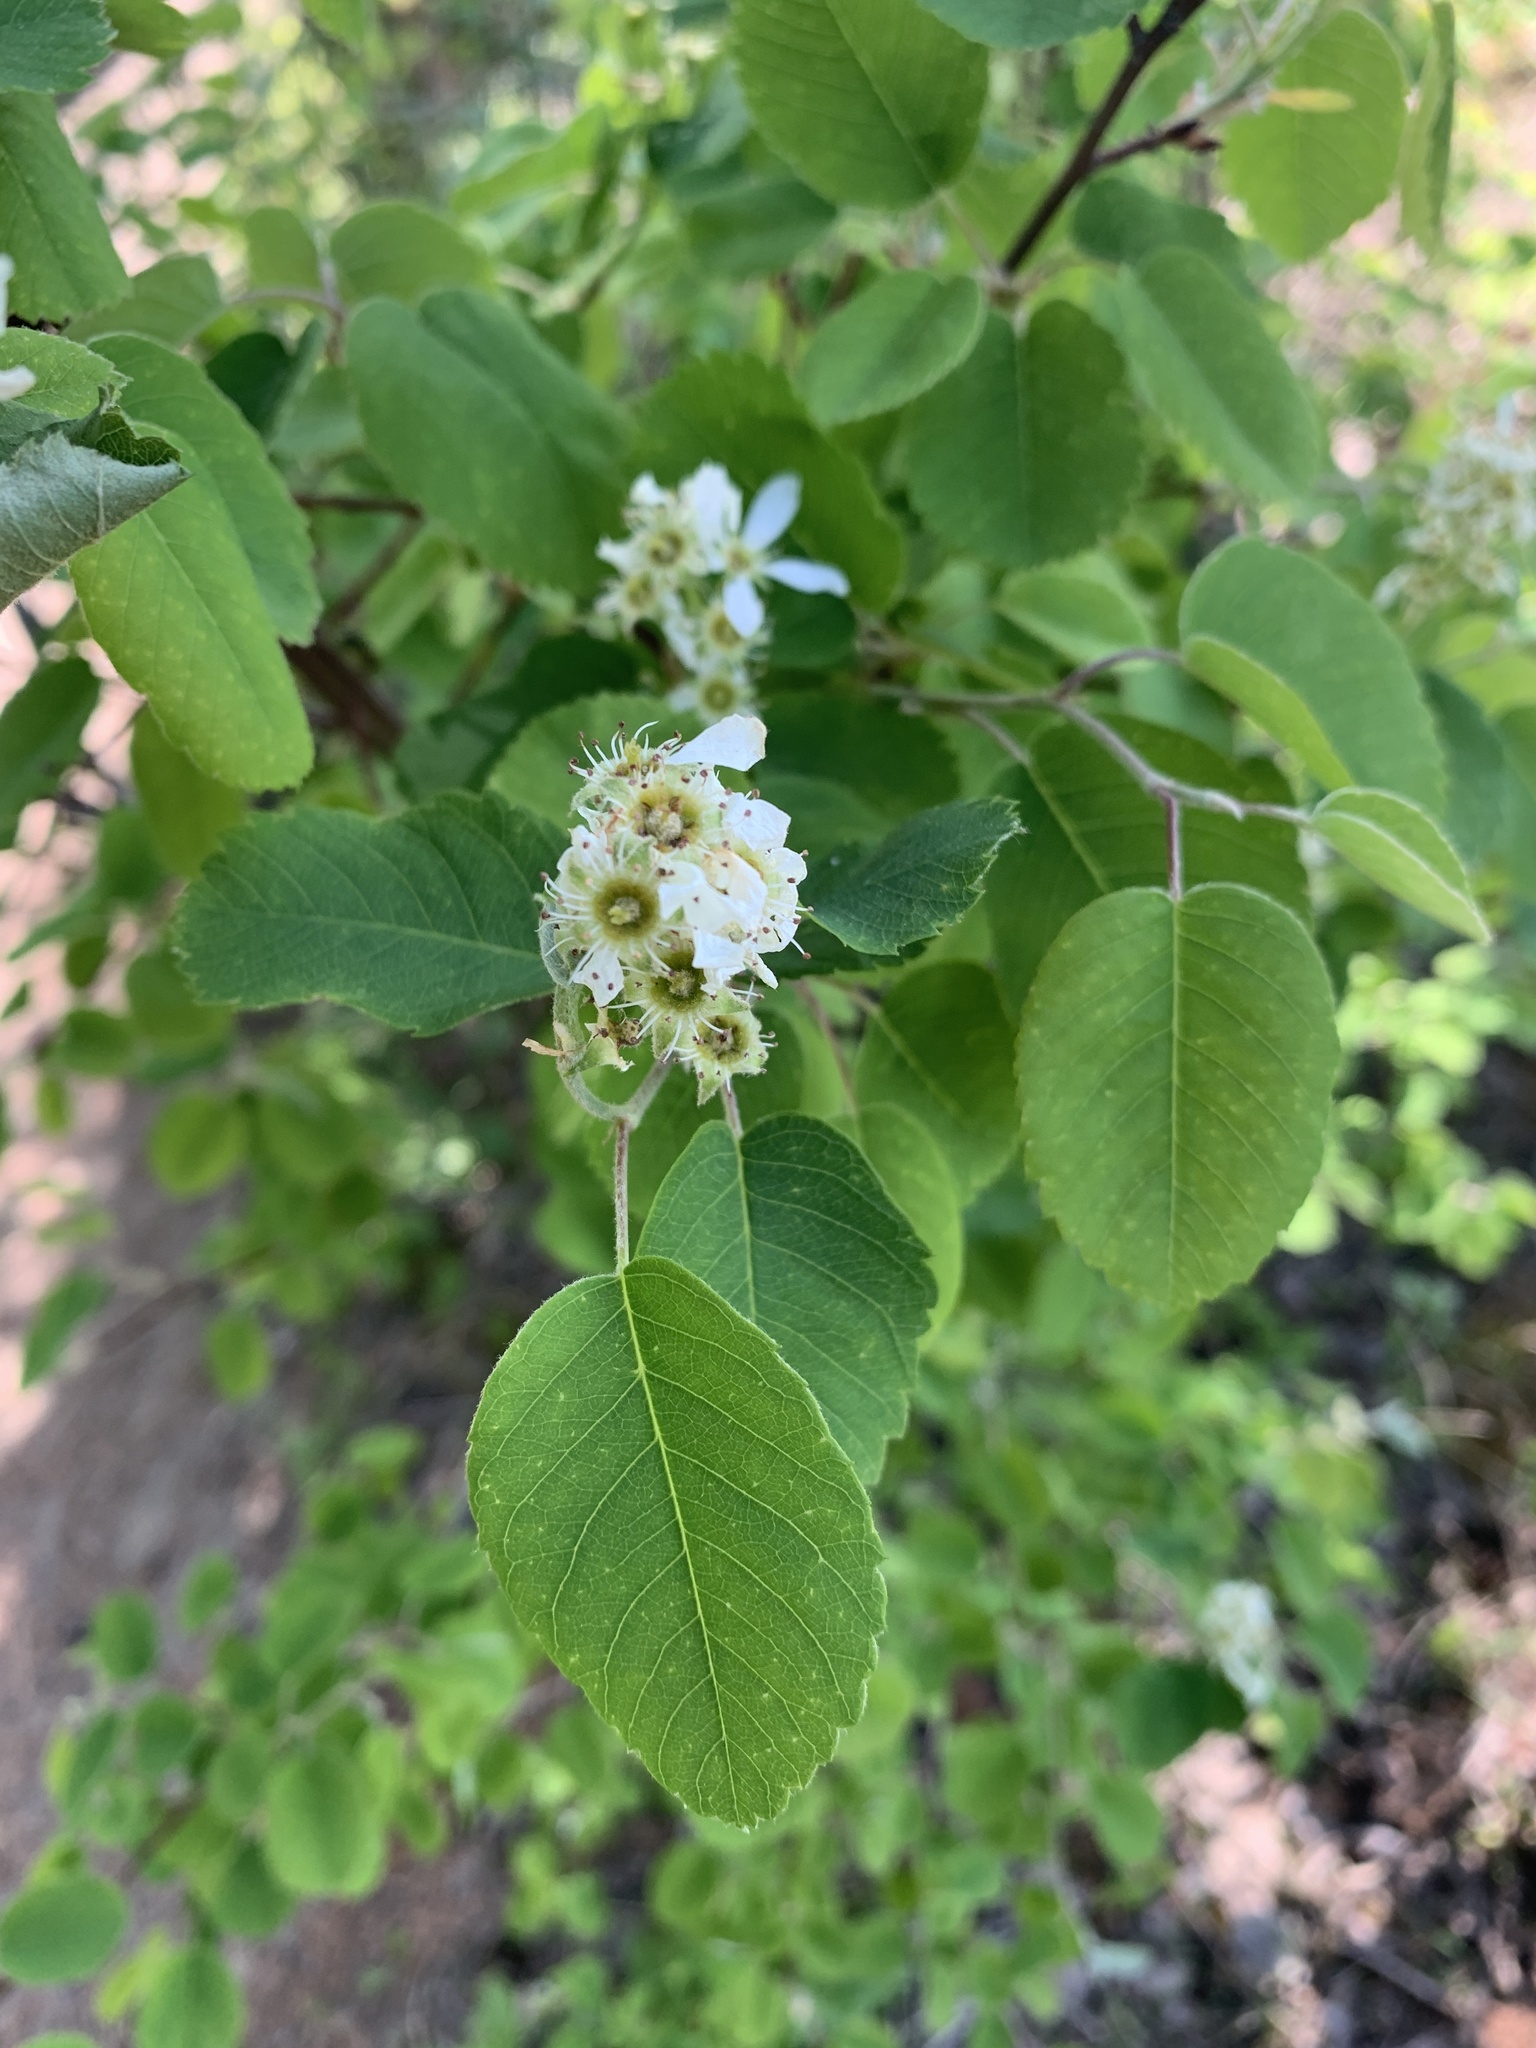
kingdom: Plantae
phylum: Tracheophyta
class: Magnoliopsida
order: Rosales
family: Rosaceae
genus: Amelanchier
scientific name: Amelanchier alnifolia
